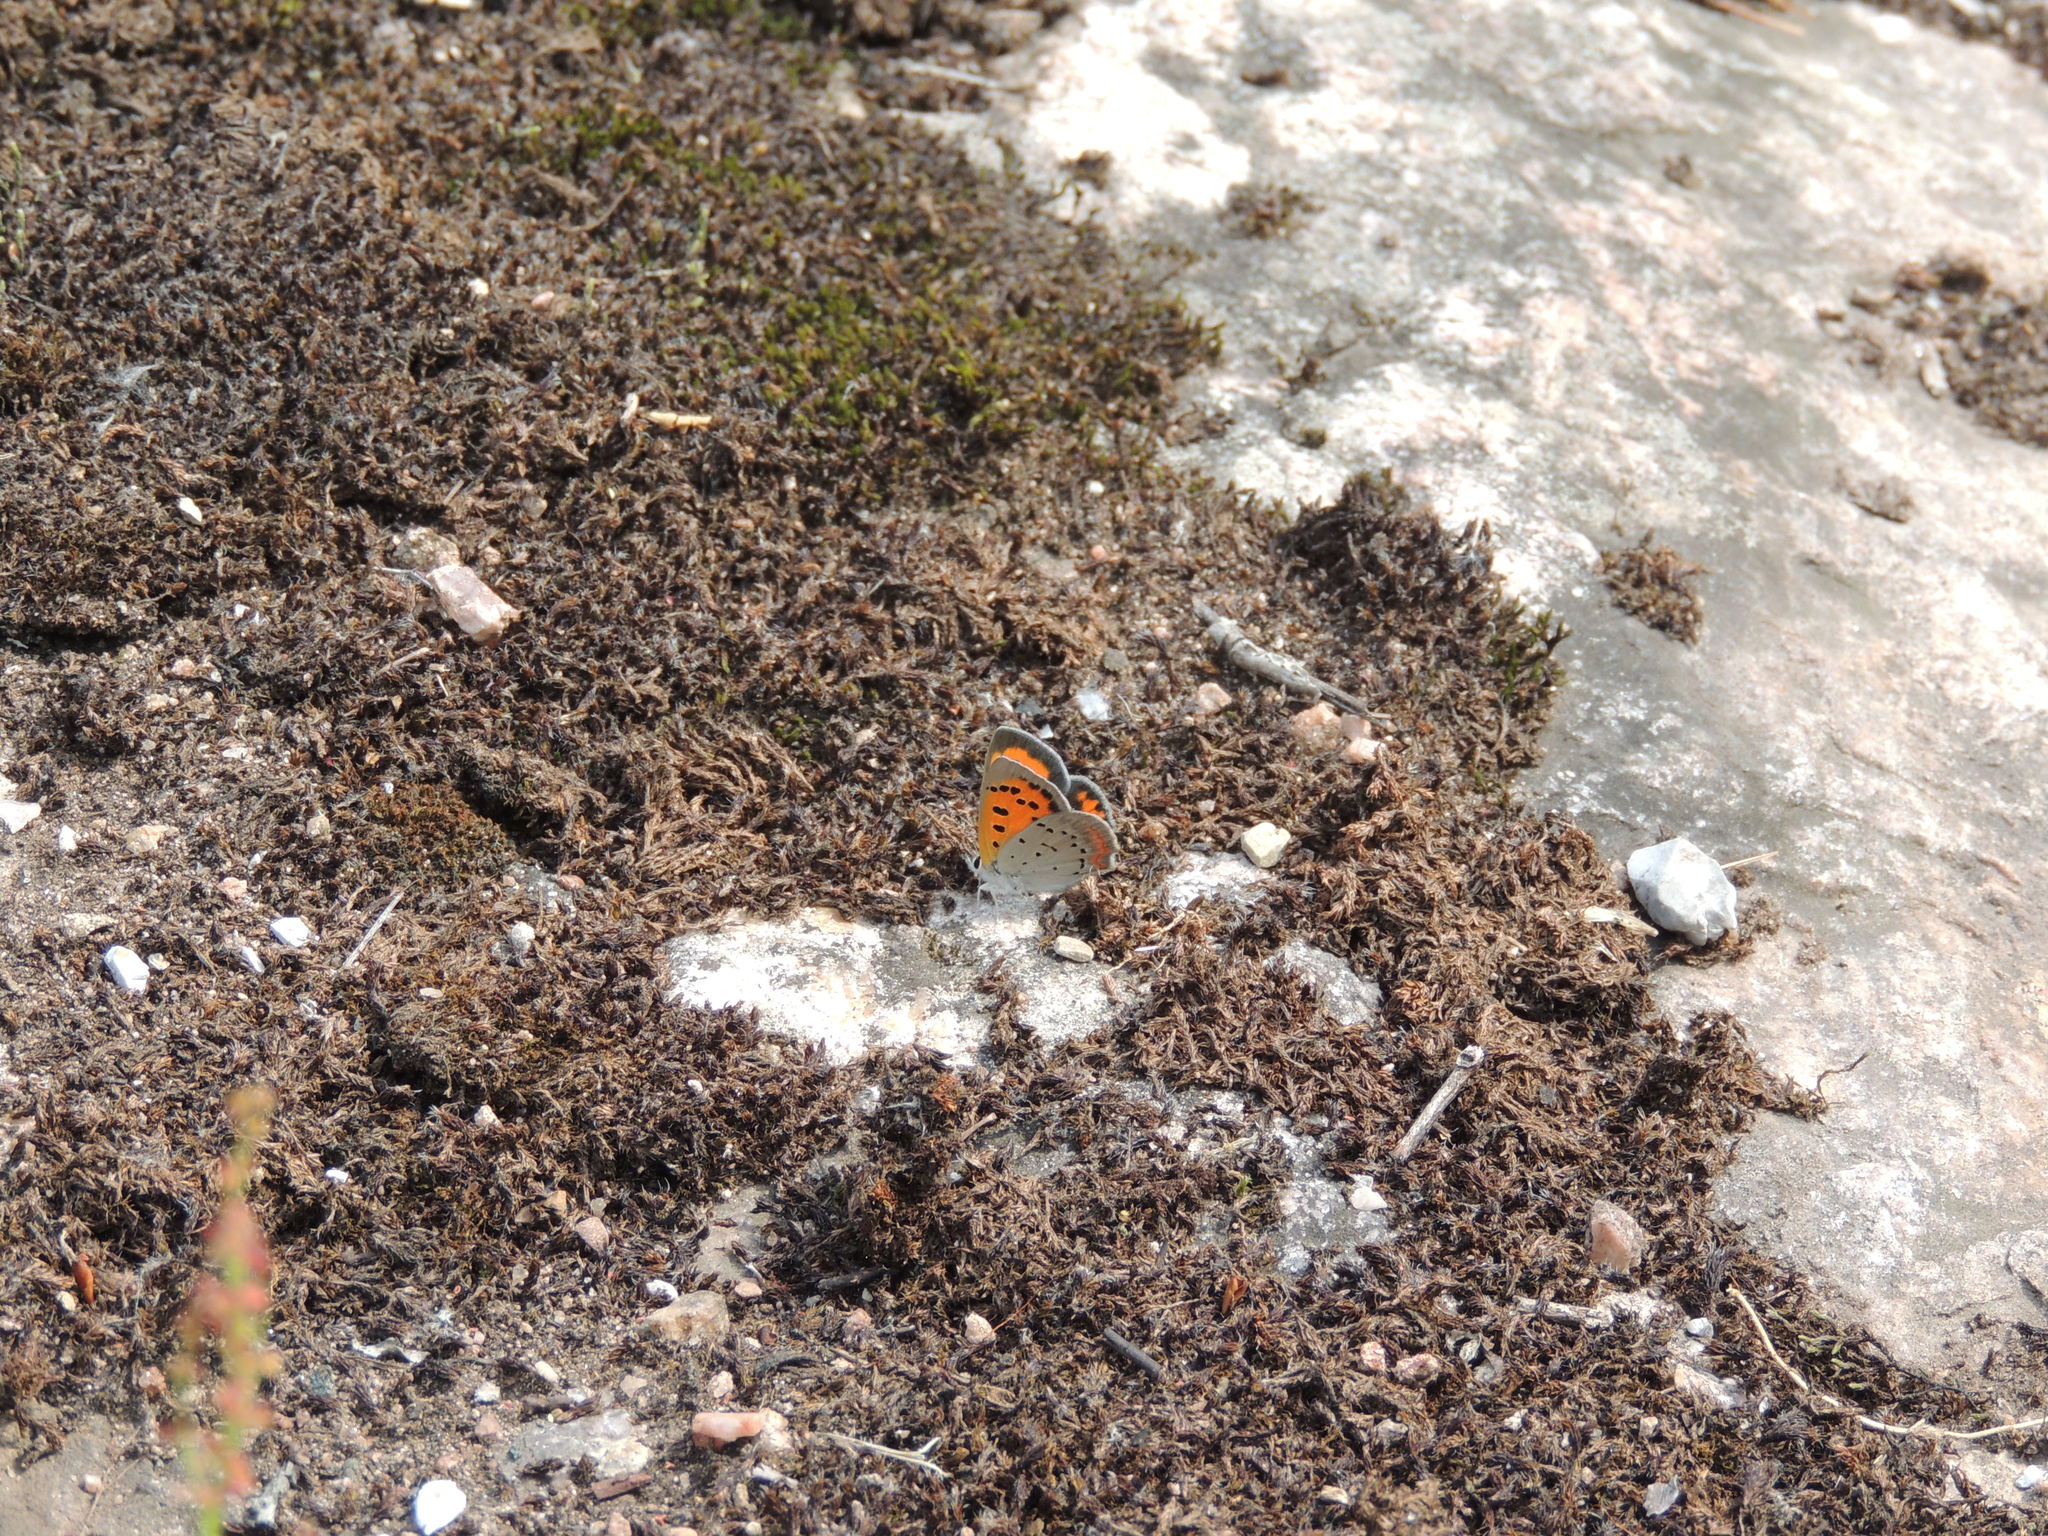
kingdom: Animalia
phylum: Arthropoda
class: Insecta
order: Lepidoptera
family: Lycaenidae
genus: Lycaena
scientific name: Lycaena hypophlaeas
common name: American copper
